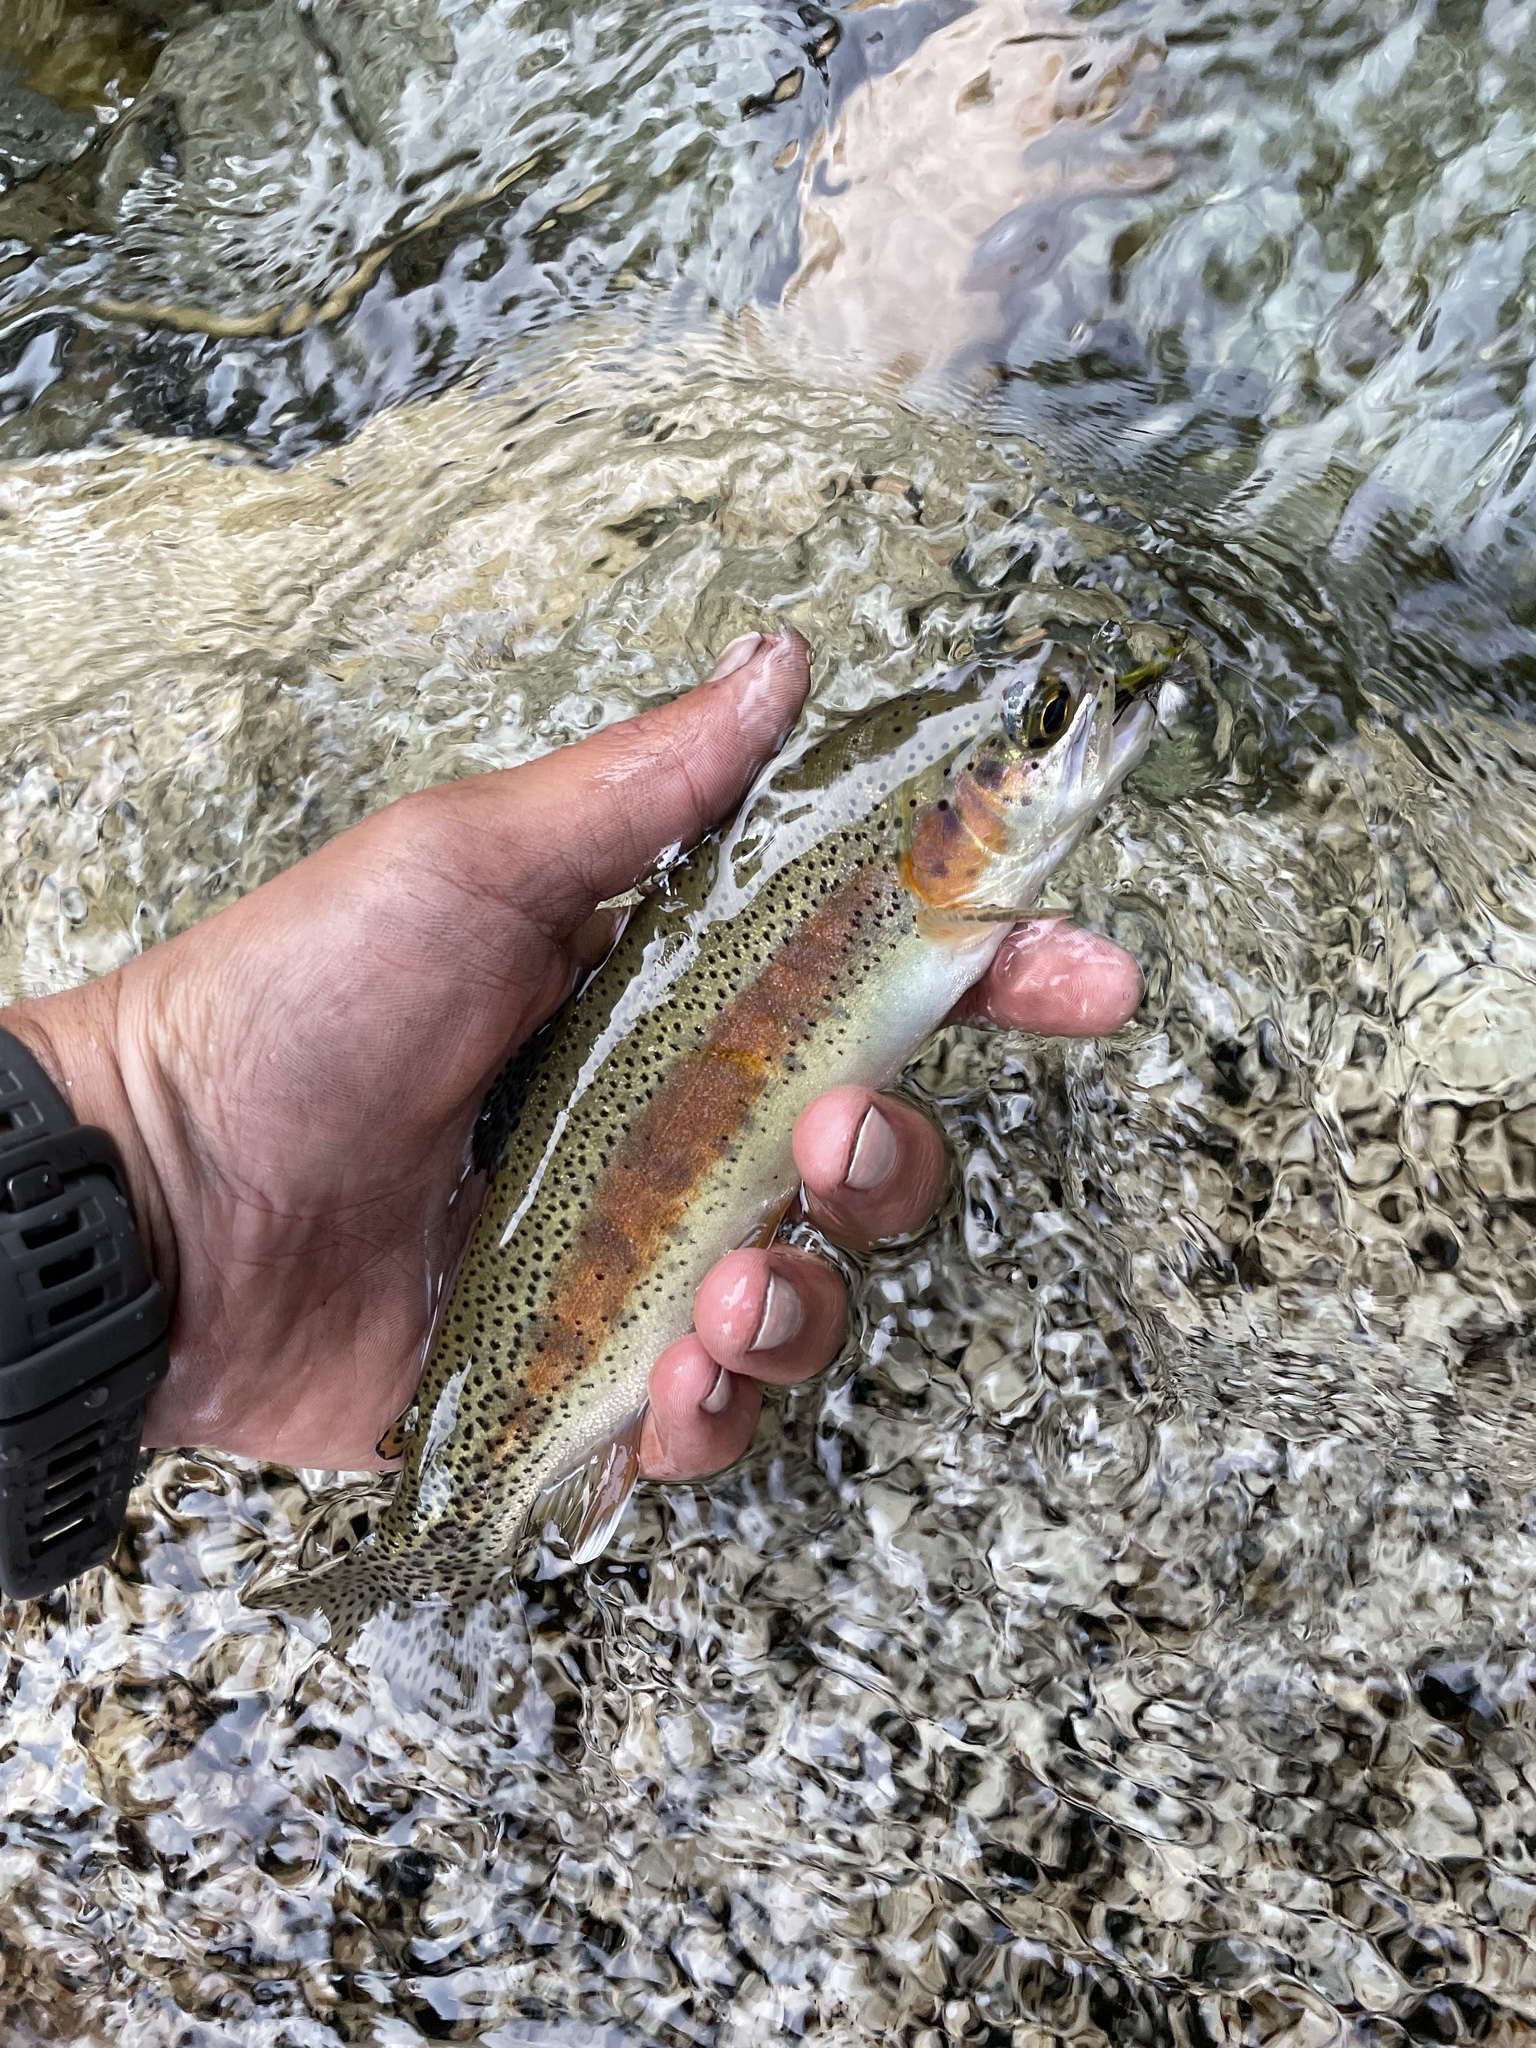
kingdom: Animalia
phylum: Chordata
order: Salmoniformes
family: Salmonidae
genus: Oncorhynchus
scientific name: Oncorhynchus mykiss
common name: Rainbow trout
